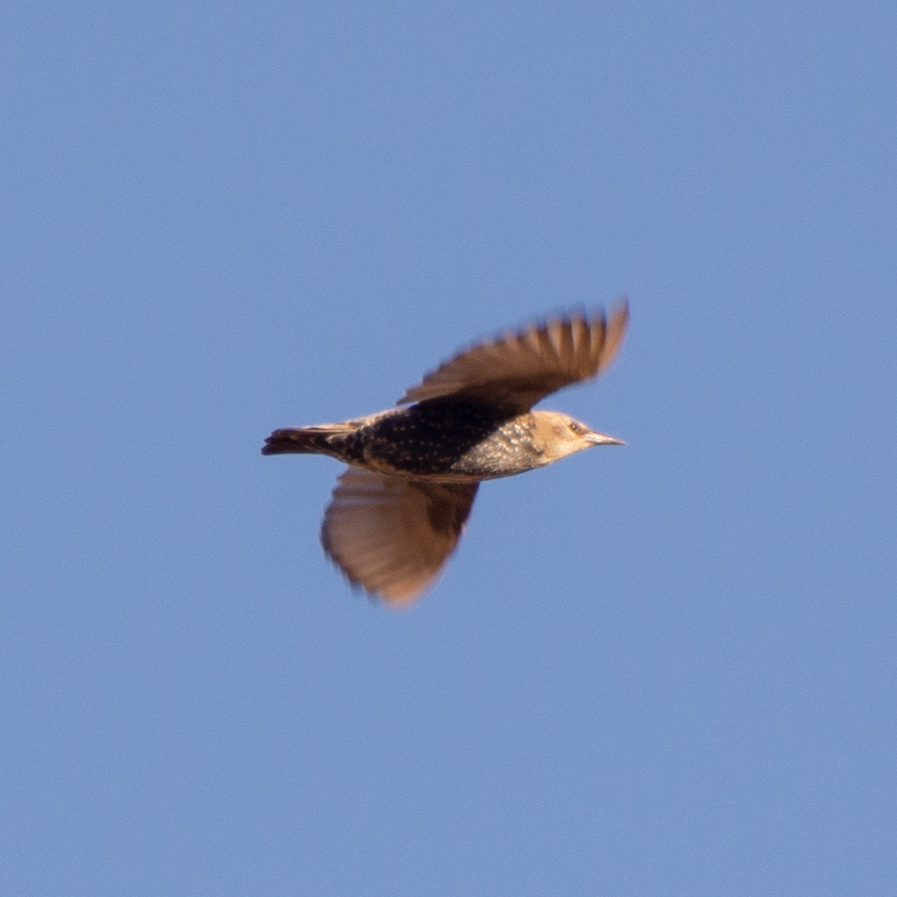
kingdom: Animalia
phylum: Chordata
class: Aves
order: Passeriformes
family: Sturnidae
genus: Sturnus
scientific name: Sturnus vulgaris
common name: Common starling
